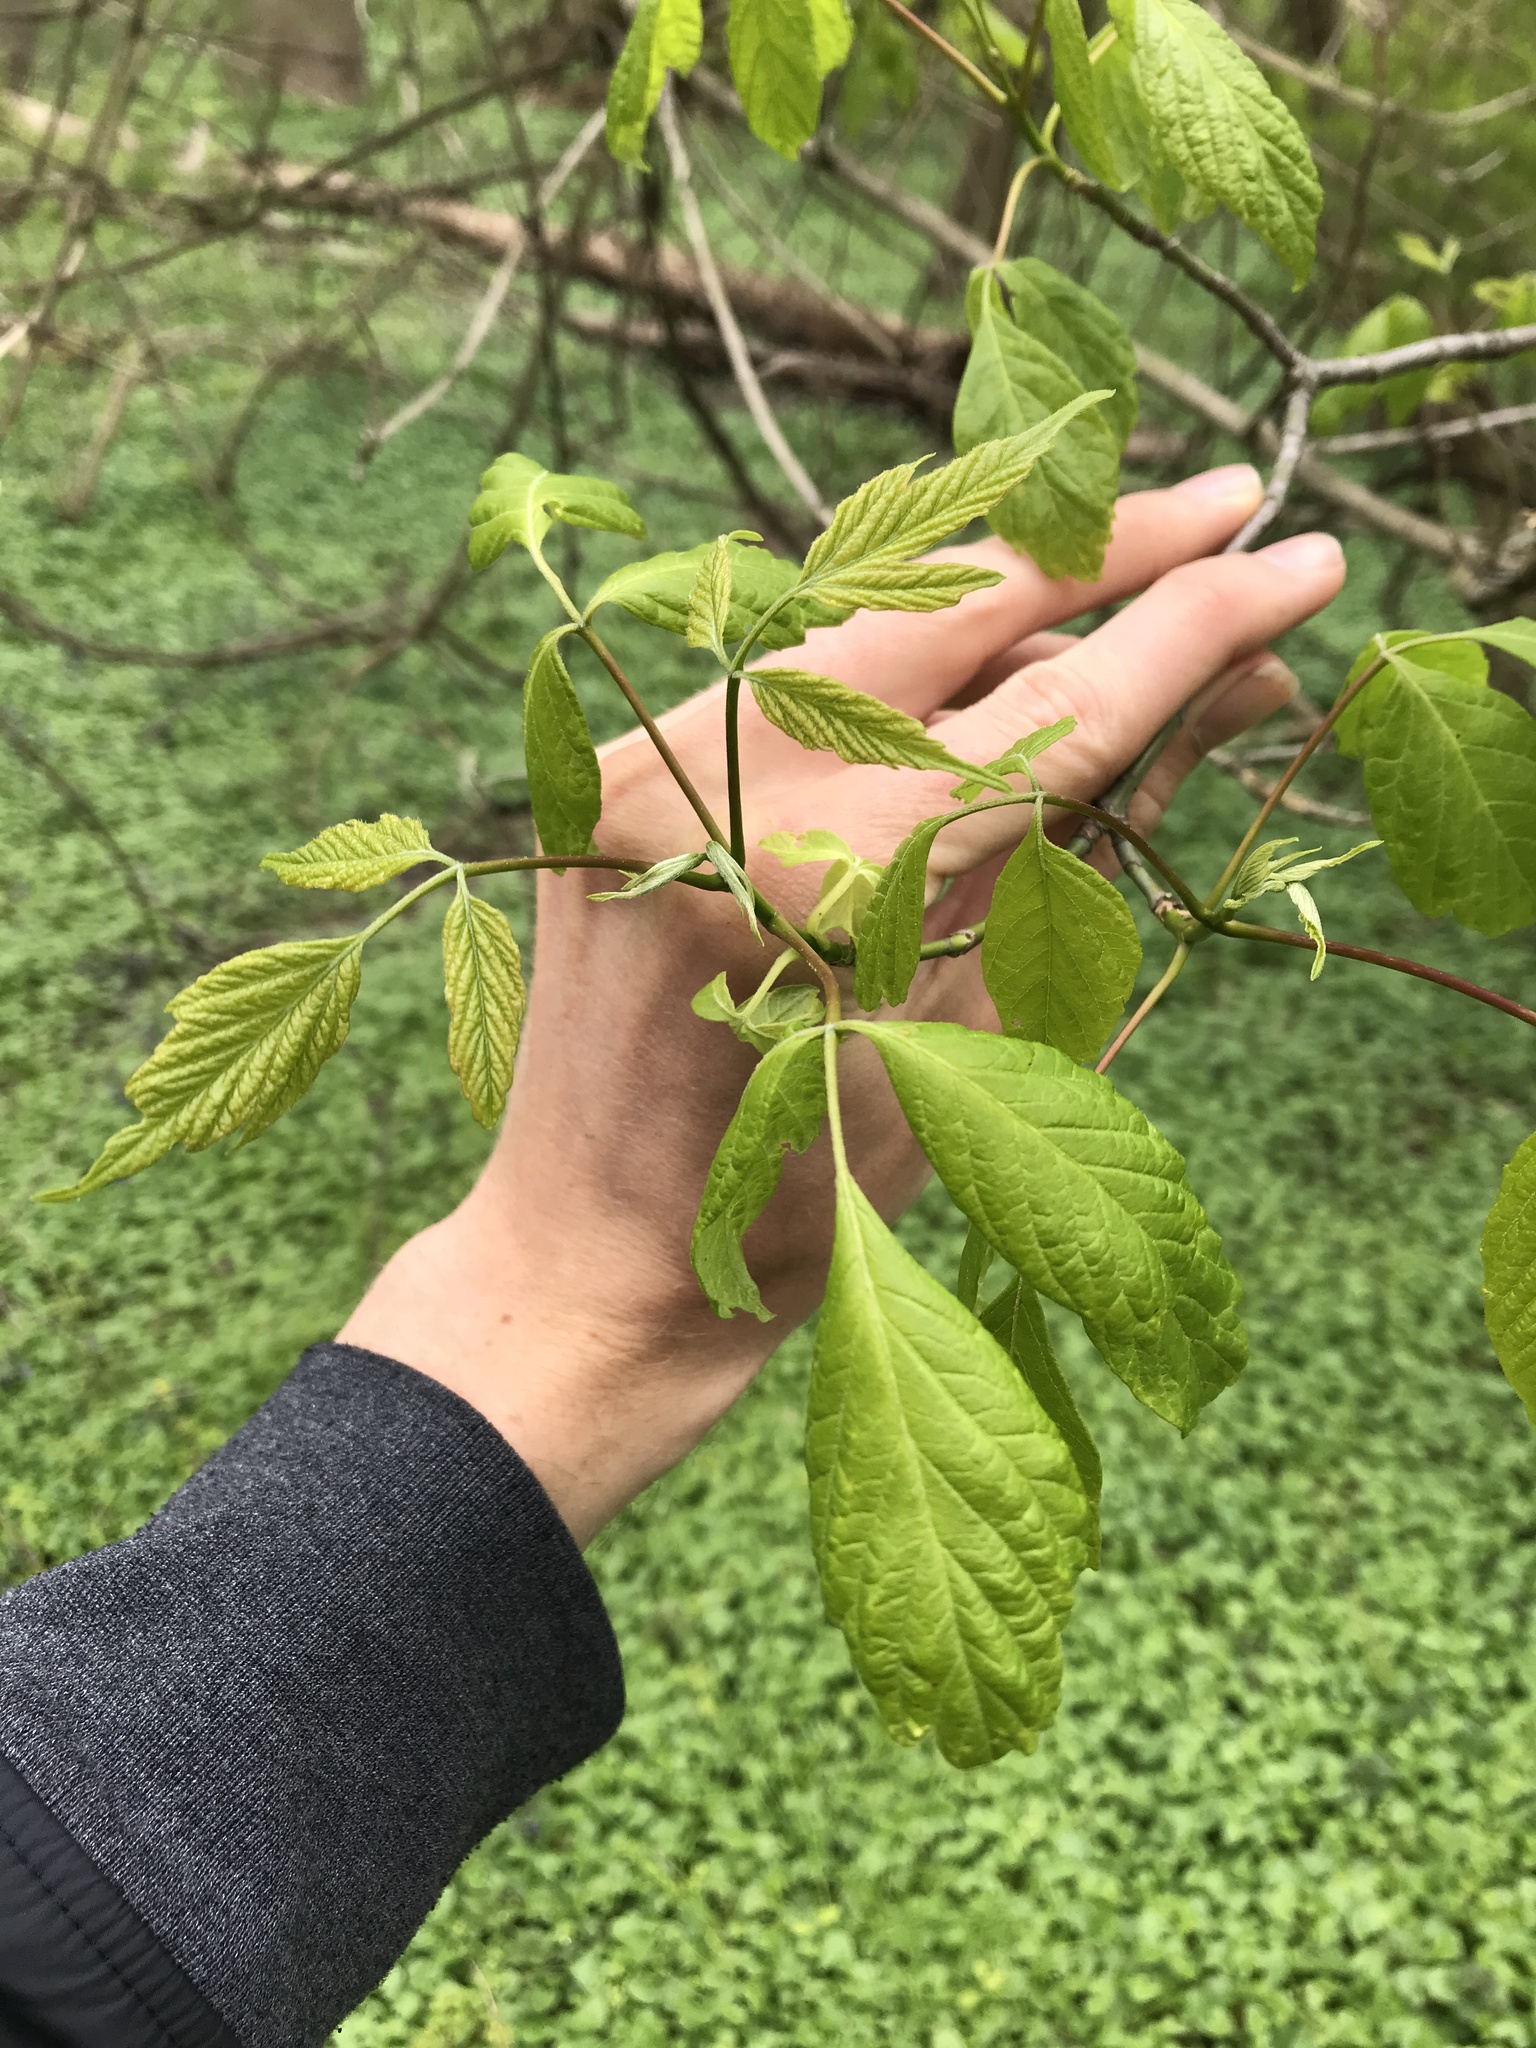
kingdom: Plantae
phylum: Tracheophyta
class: Magnoliopsida
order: Sapindales
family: Sapindaceae
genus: Acer
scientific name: Acer negundo
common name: Ashleaf maple
